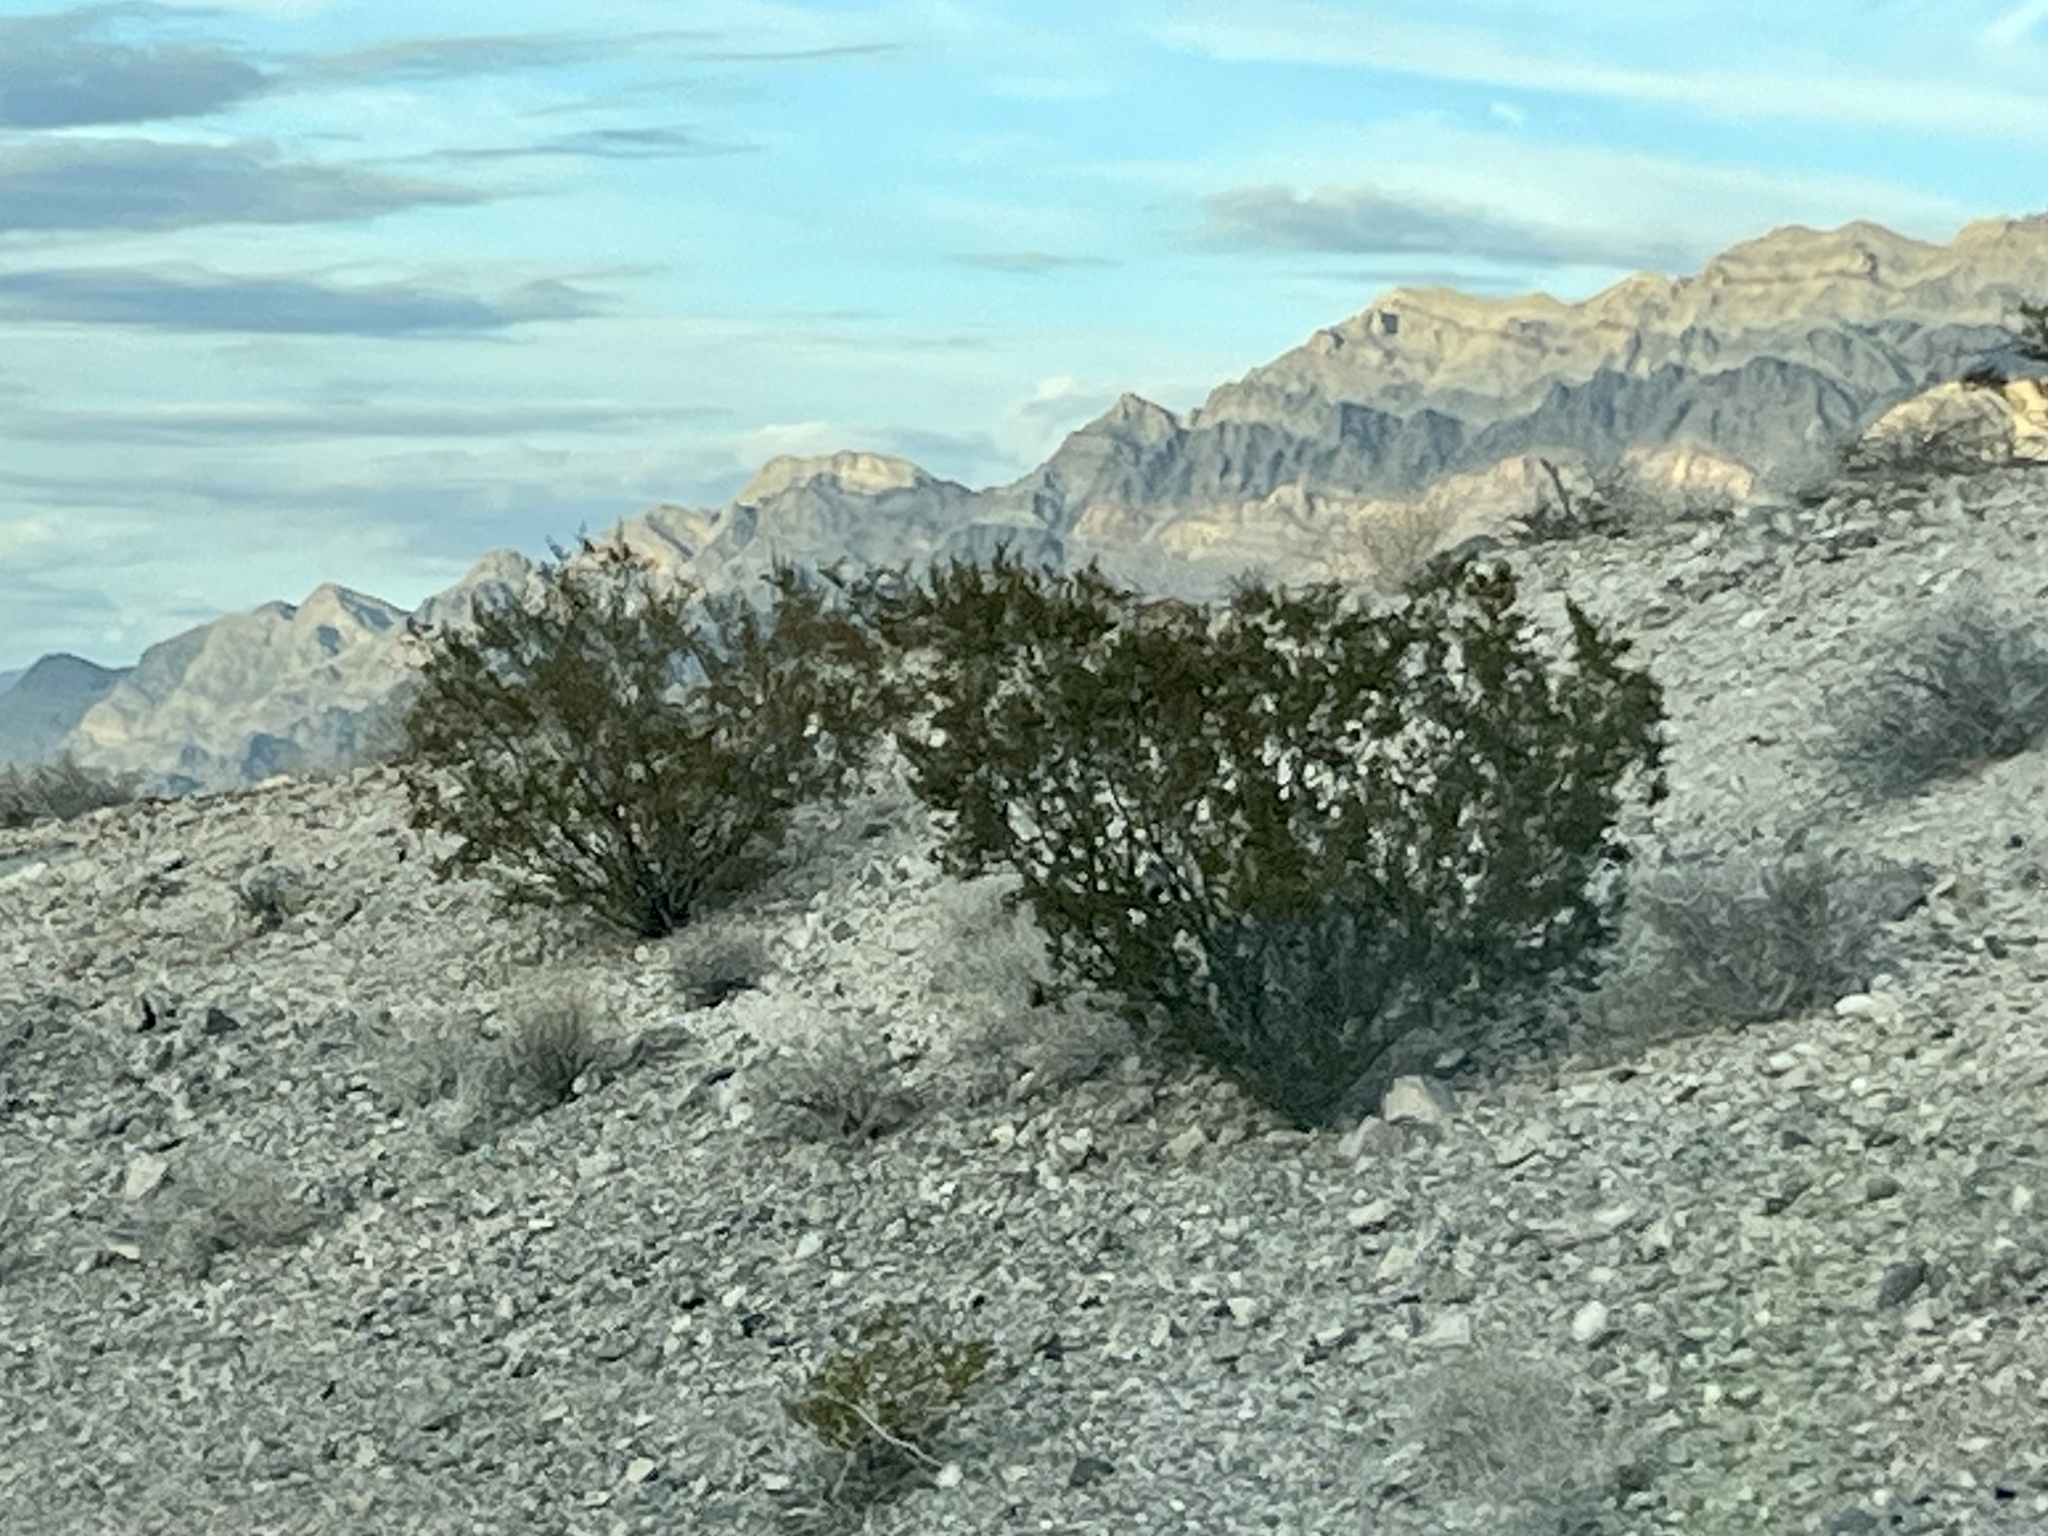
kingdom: Plantae
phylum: Tracheophyta
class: Magnoliopsida
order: Zygophyllales
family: Zygophyllaceae
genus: Larrea
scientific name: Larrea tridentata
